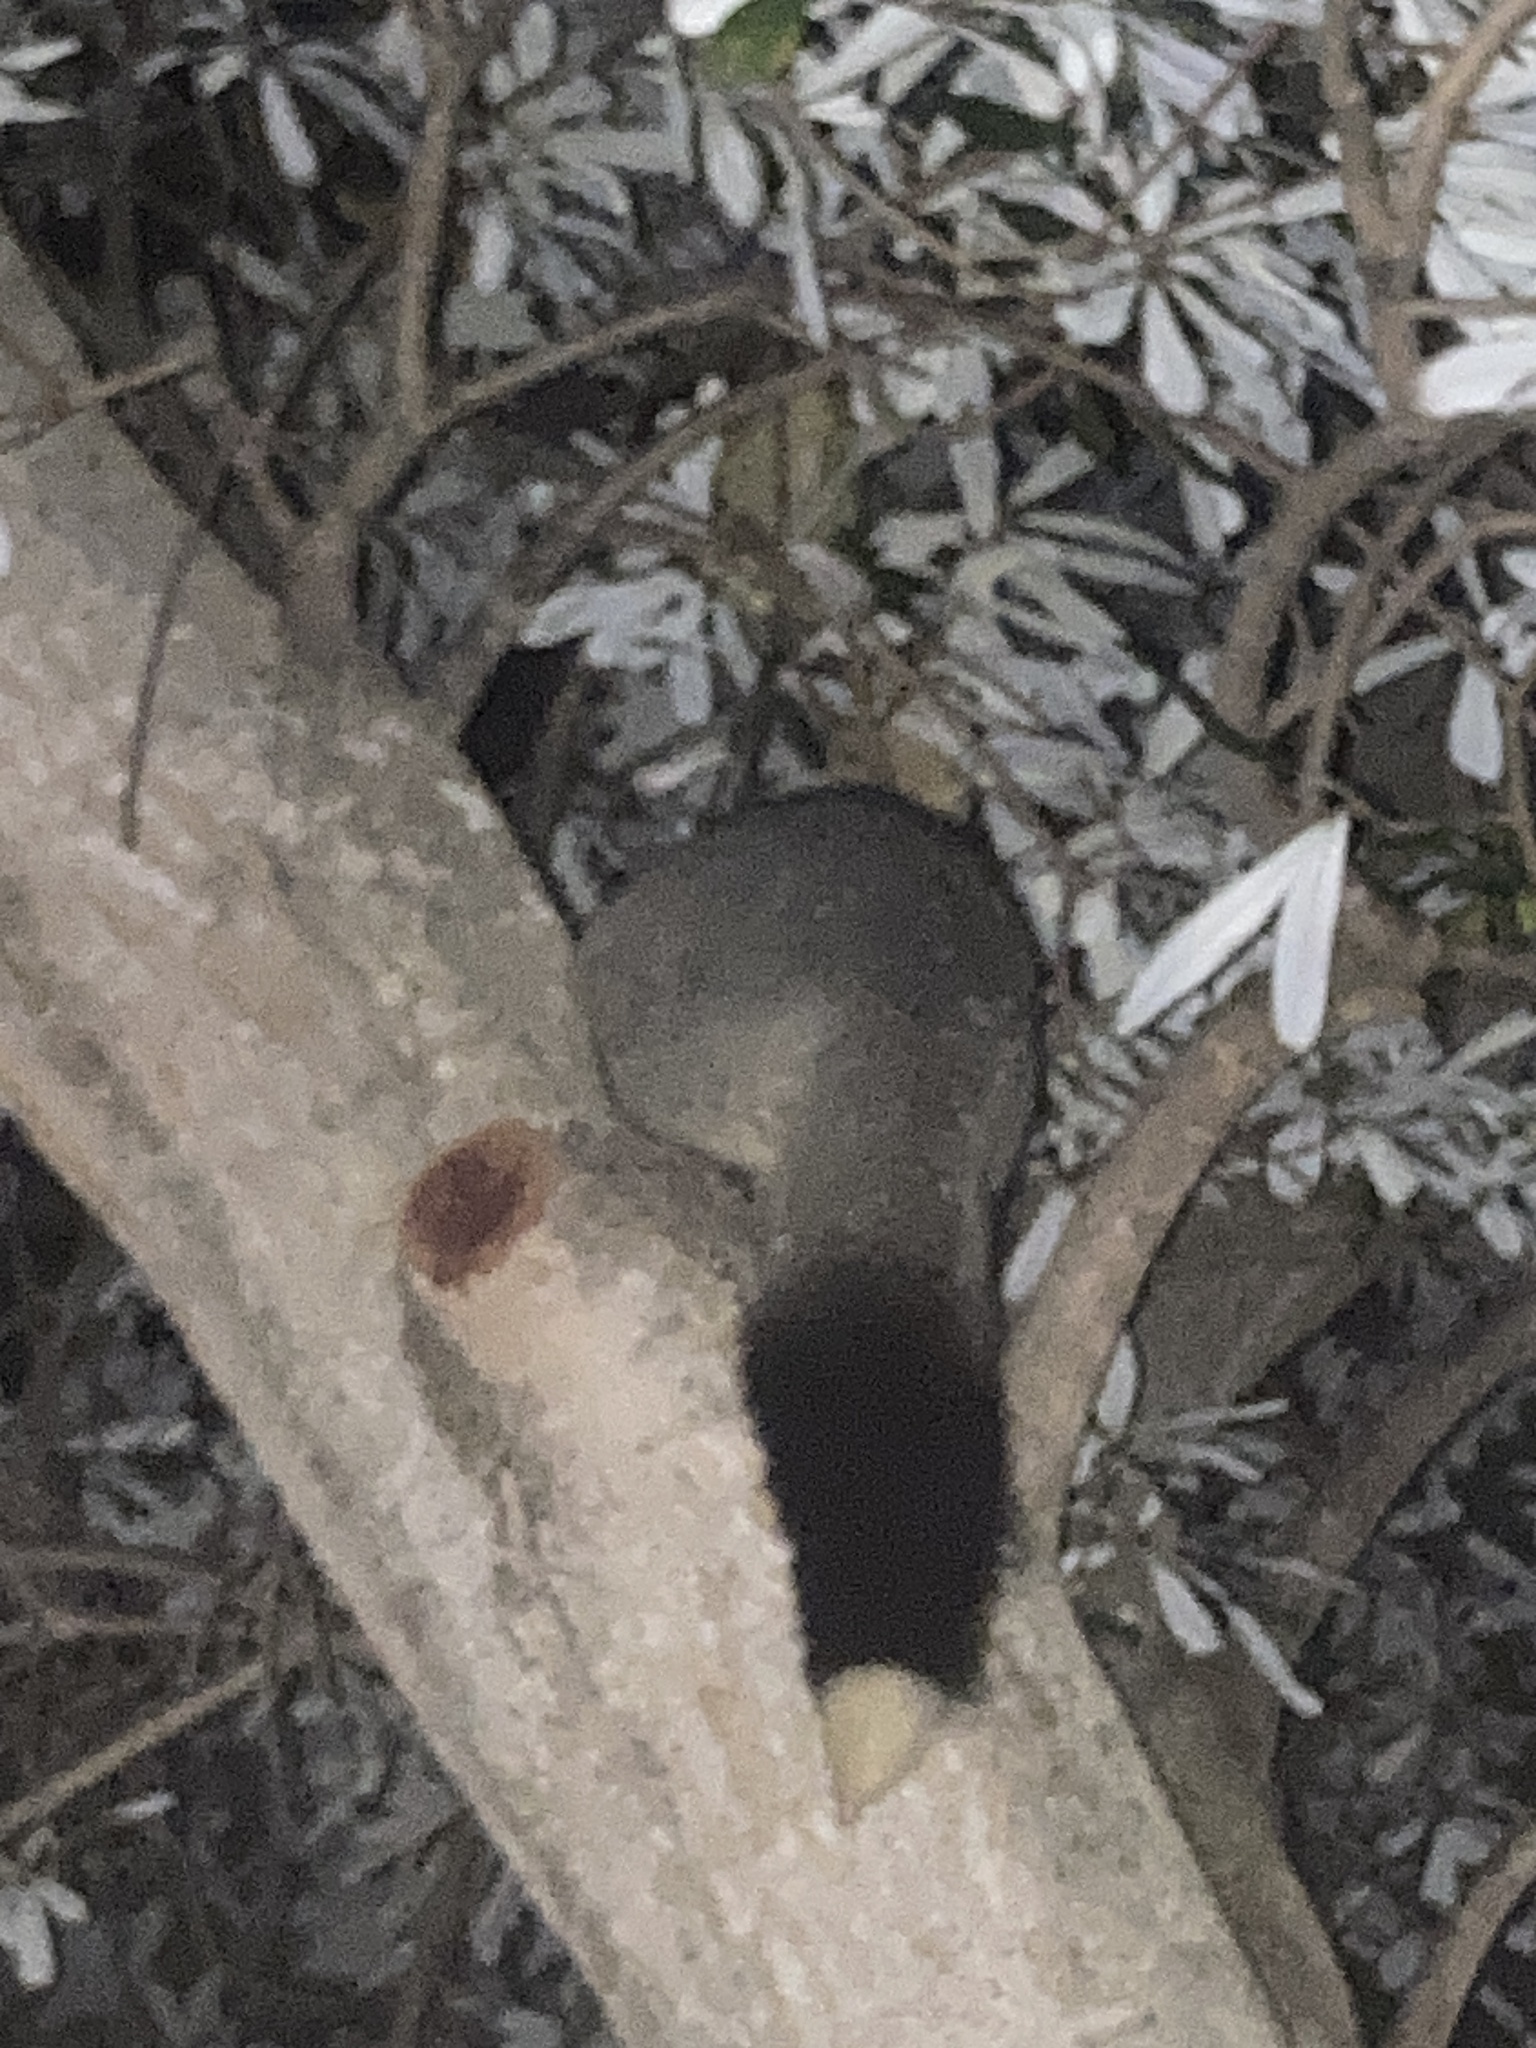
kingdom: Animalia
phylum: Chordata
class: Mammalia
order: Diprotodontia
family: Phalangeridae
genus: Trichosurus
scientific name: Trichosurus vulpecula
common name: Common brushtail
